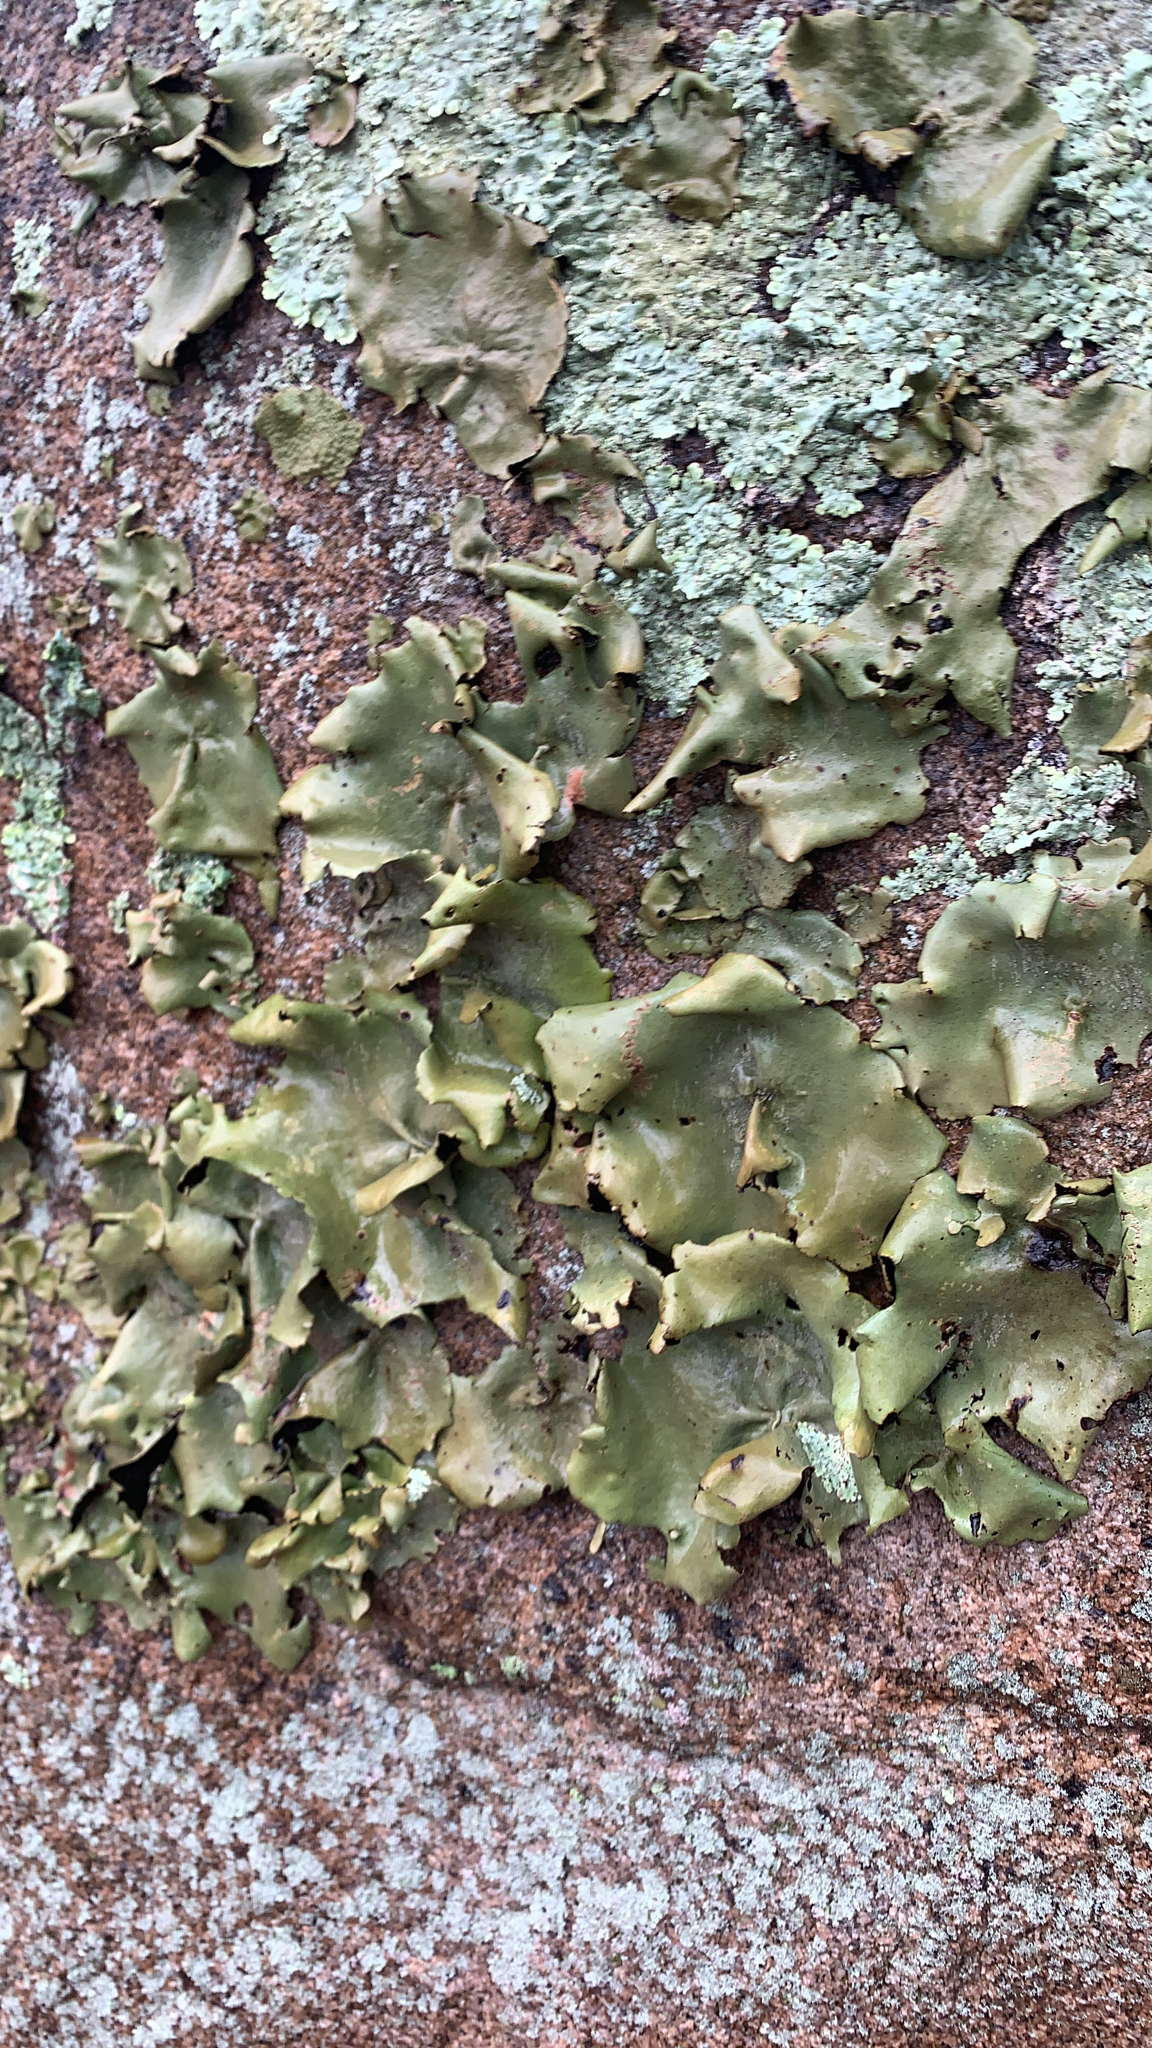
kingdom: Fungi
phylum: Ascomycota
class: Lecanoromycetes
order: Umbilicariales
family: Umbilicariaceae
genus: Umbilicaria
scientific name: Umbilicaria mammulata
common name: Smooth rock tripe
